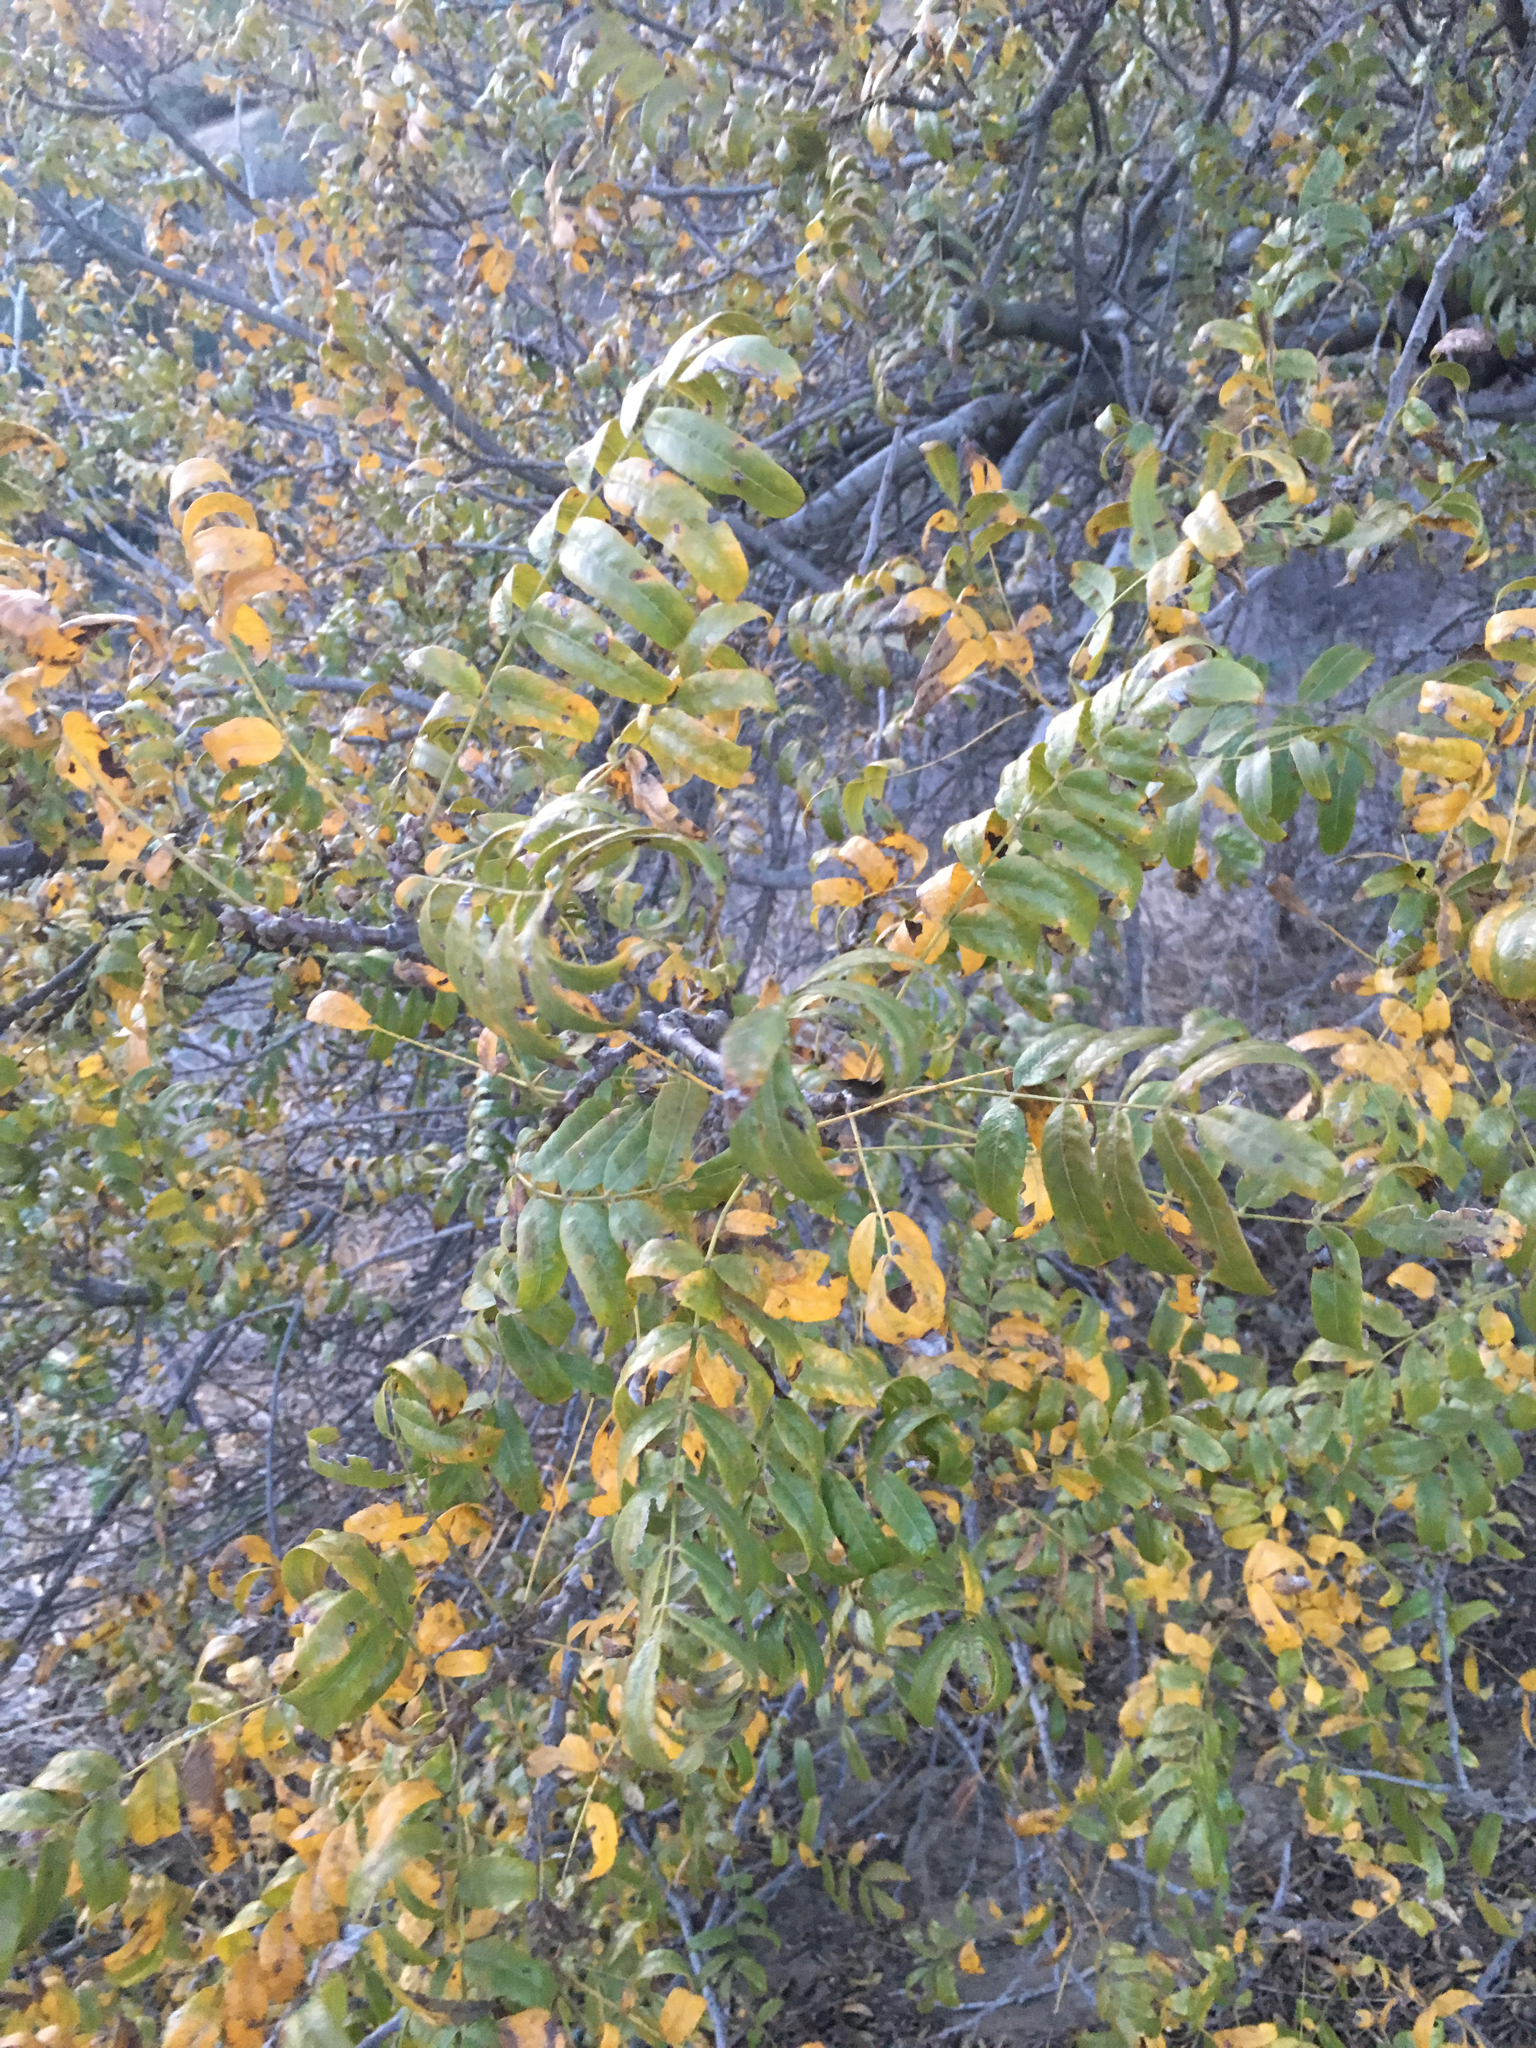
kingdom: Plantae
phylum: Tracheophyta
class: Magnoliopsida
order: Fagales
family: Juglandaceae
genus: Juglans
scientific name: Juglans californica
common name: Southern california black walnut
